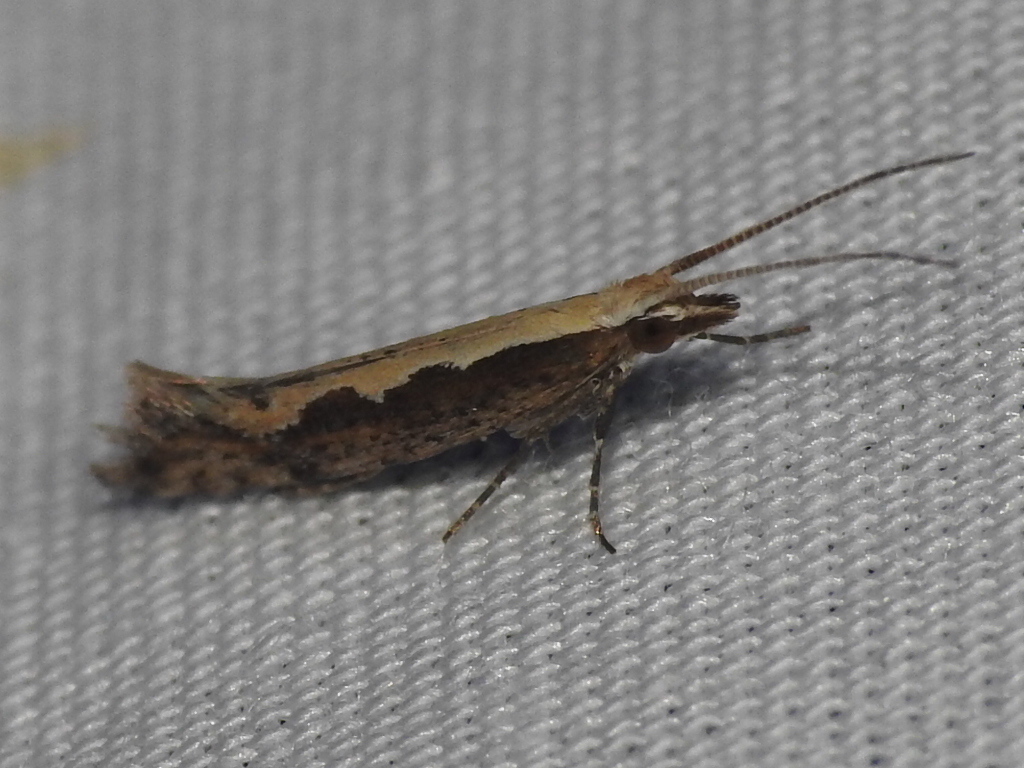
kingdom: Animalia
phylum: Arthropoda
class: Insecta
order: Lepidoptera
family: Plutellidae
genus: Plutella
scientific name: Plutella xylostella
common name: Diamond-back moth
